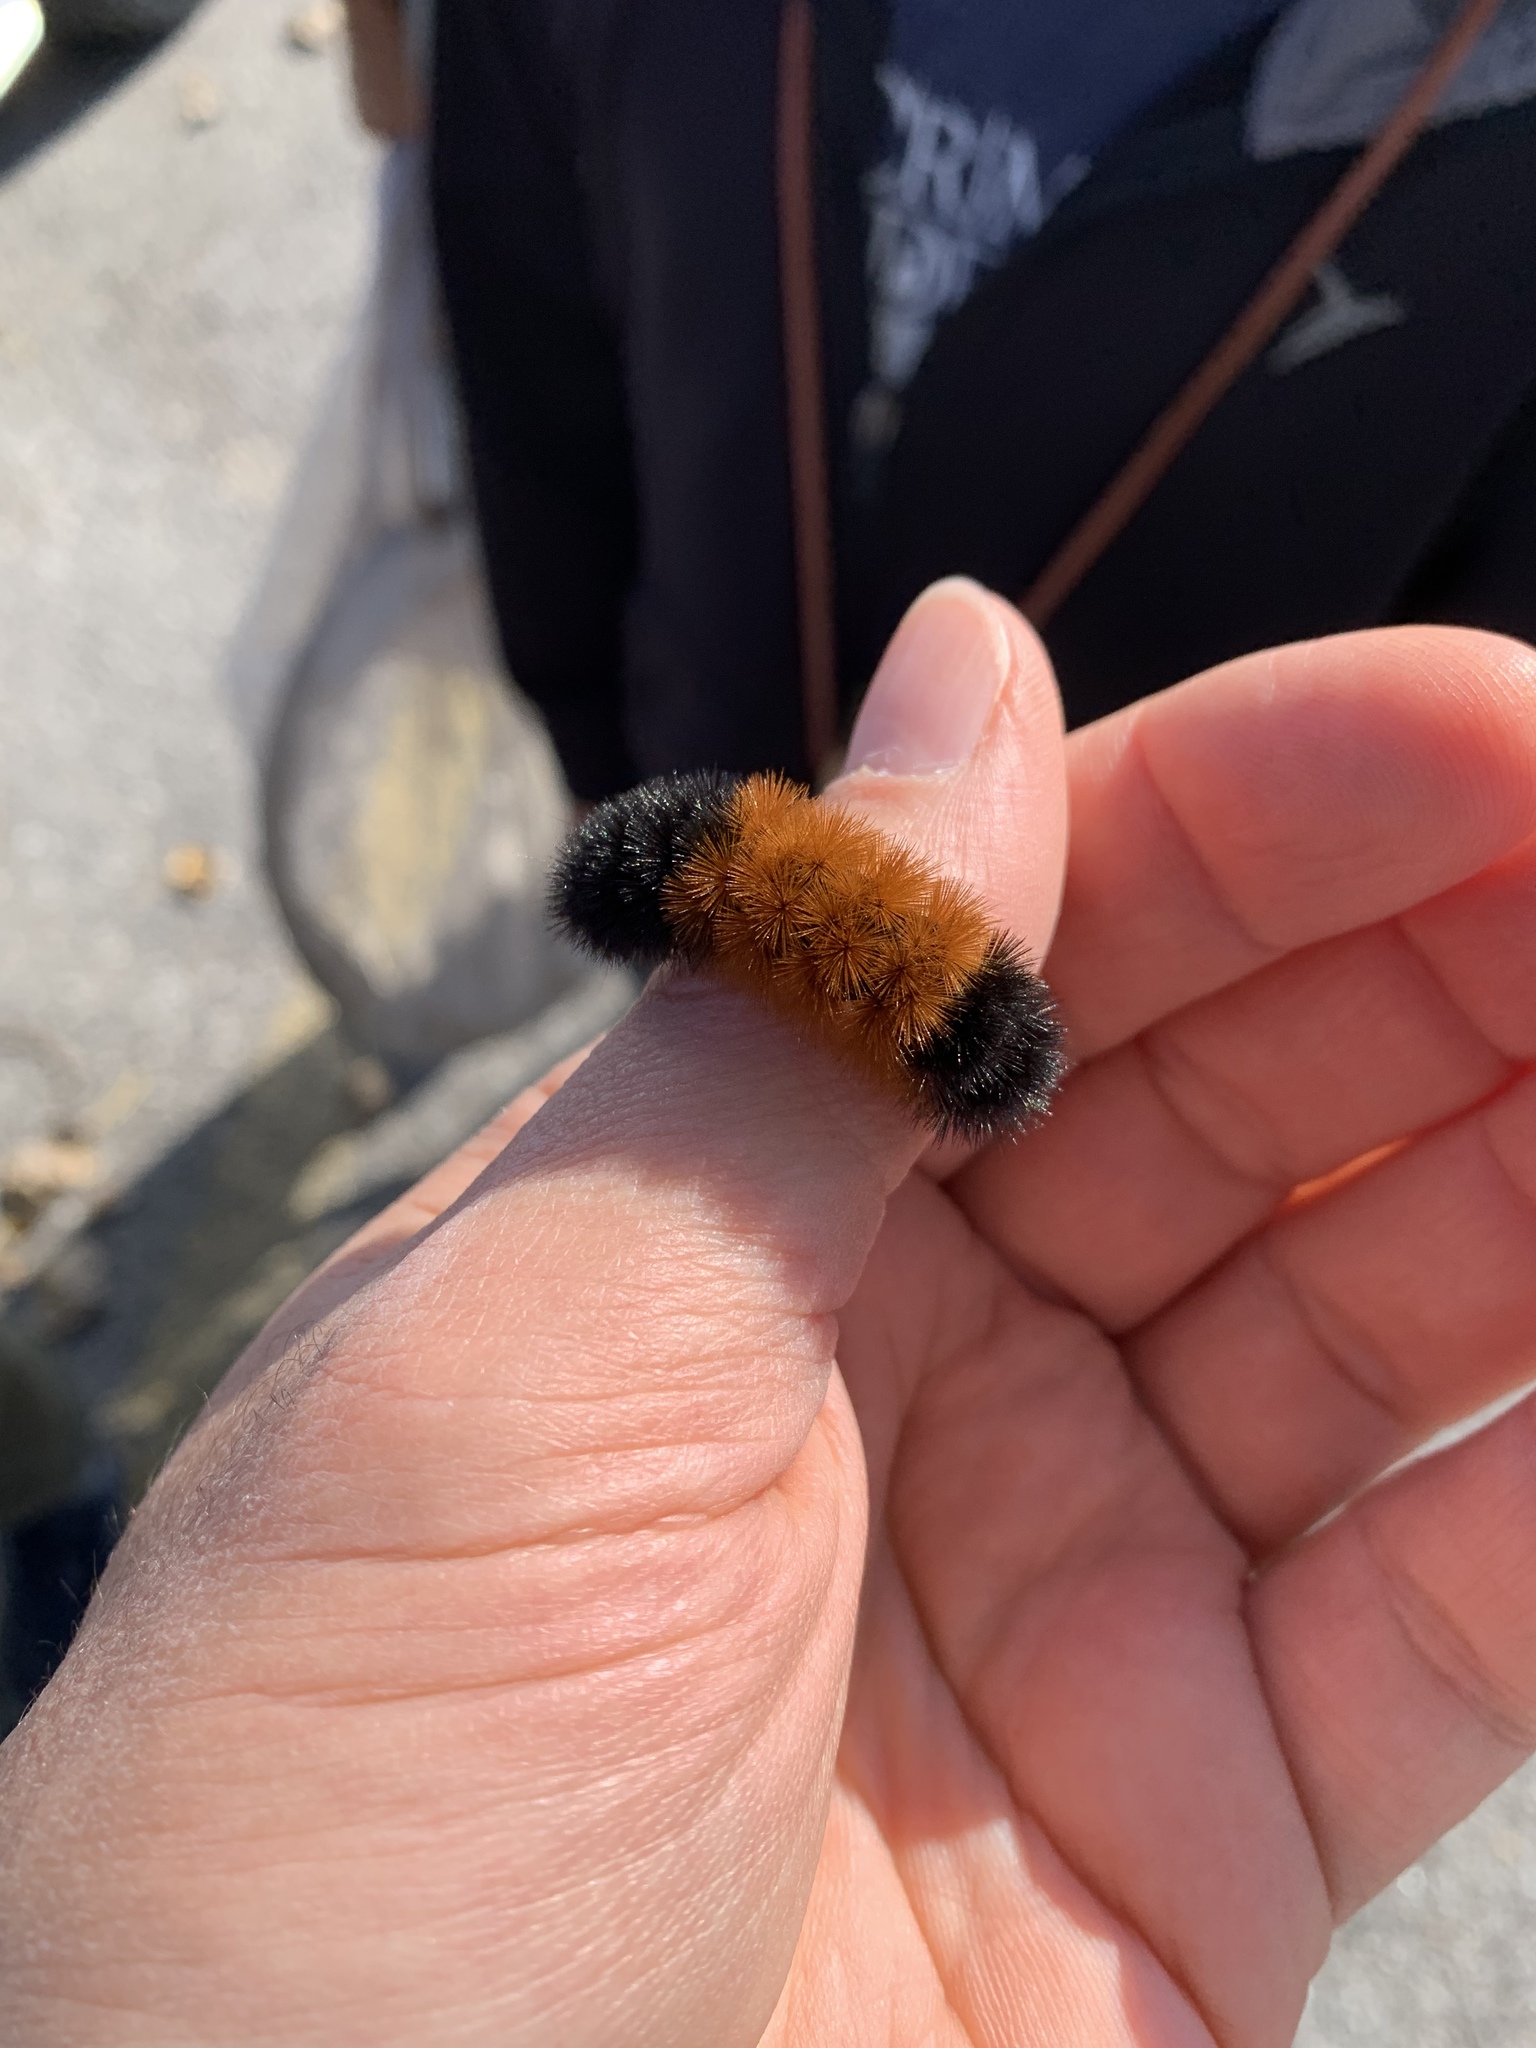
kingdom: Animalia
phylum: Arthropoda
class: Insecta
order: Lepidoptera
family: Erebidae
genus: Pyrrharctia
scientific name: Pyrrharctia isabella
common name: Isabella tiger moth
